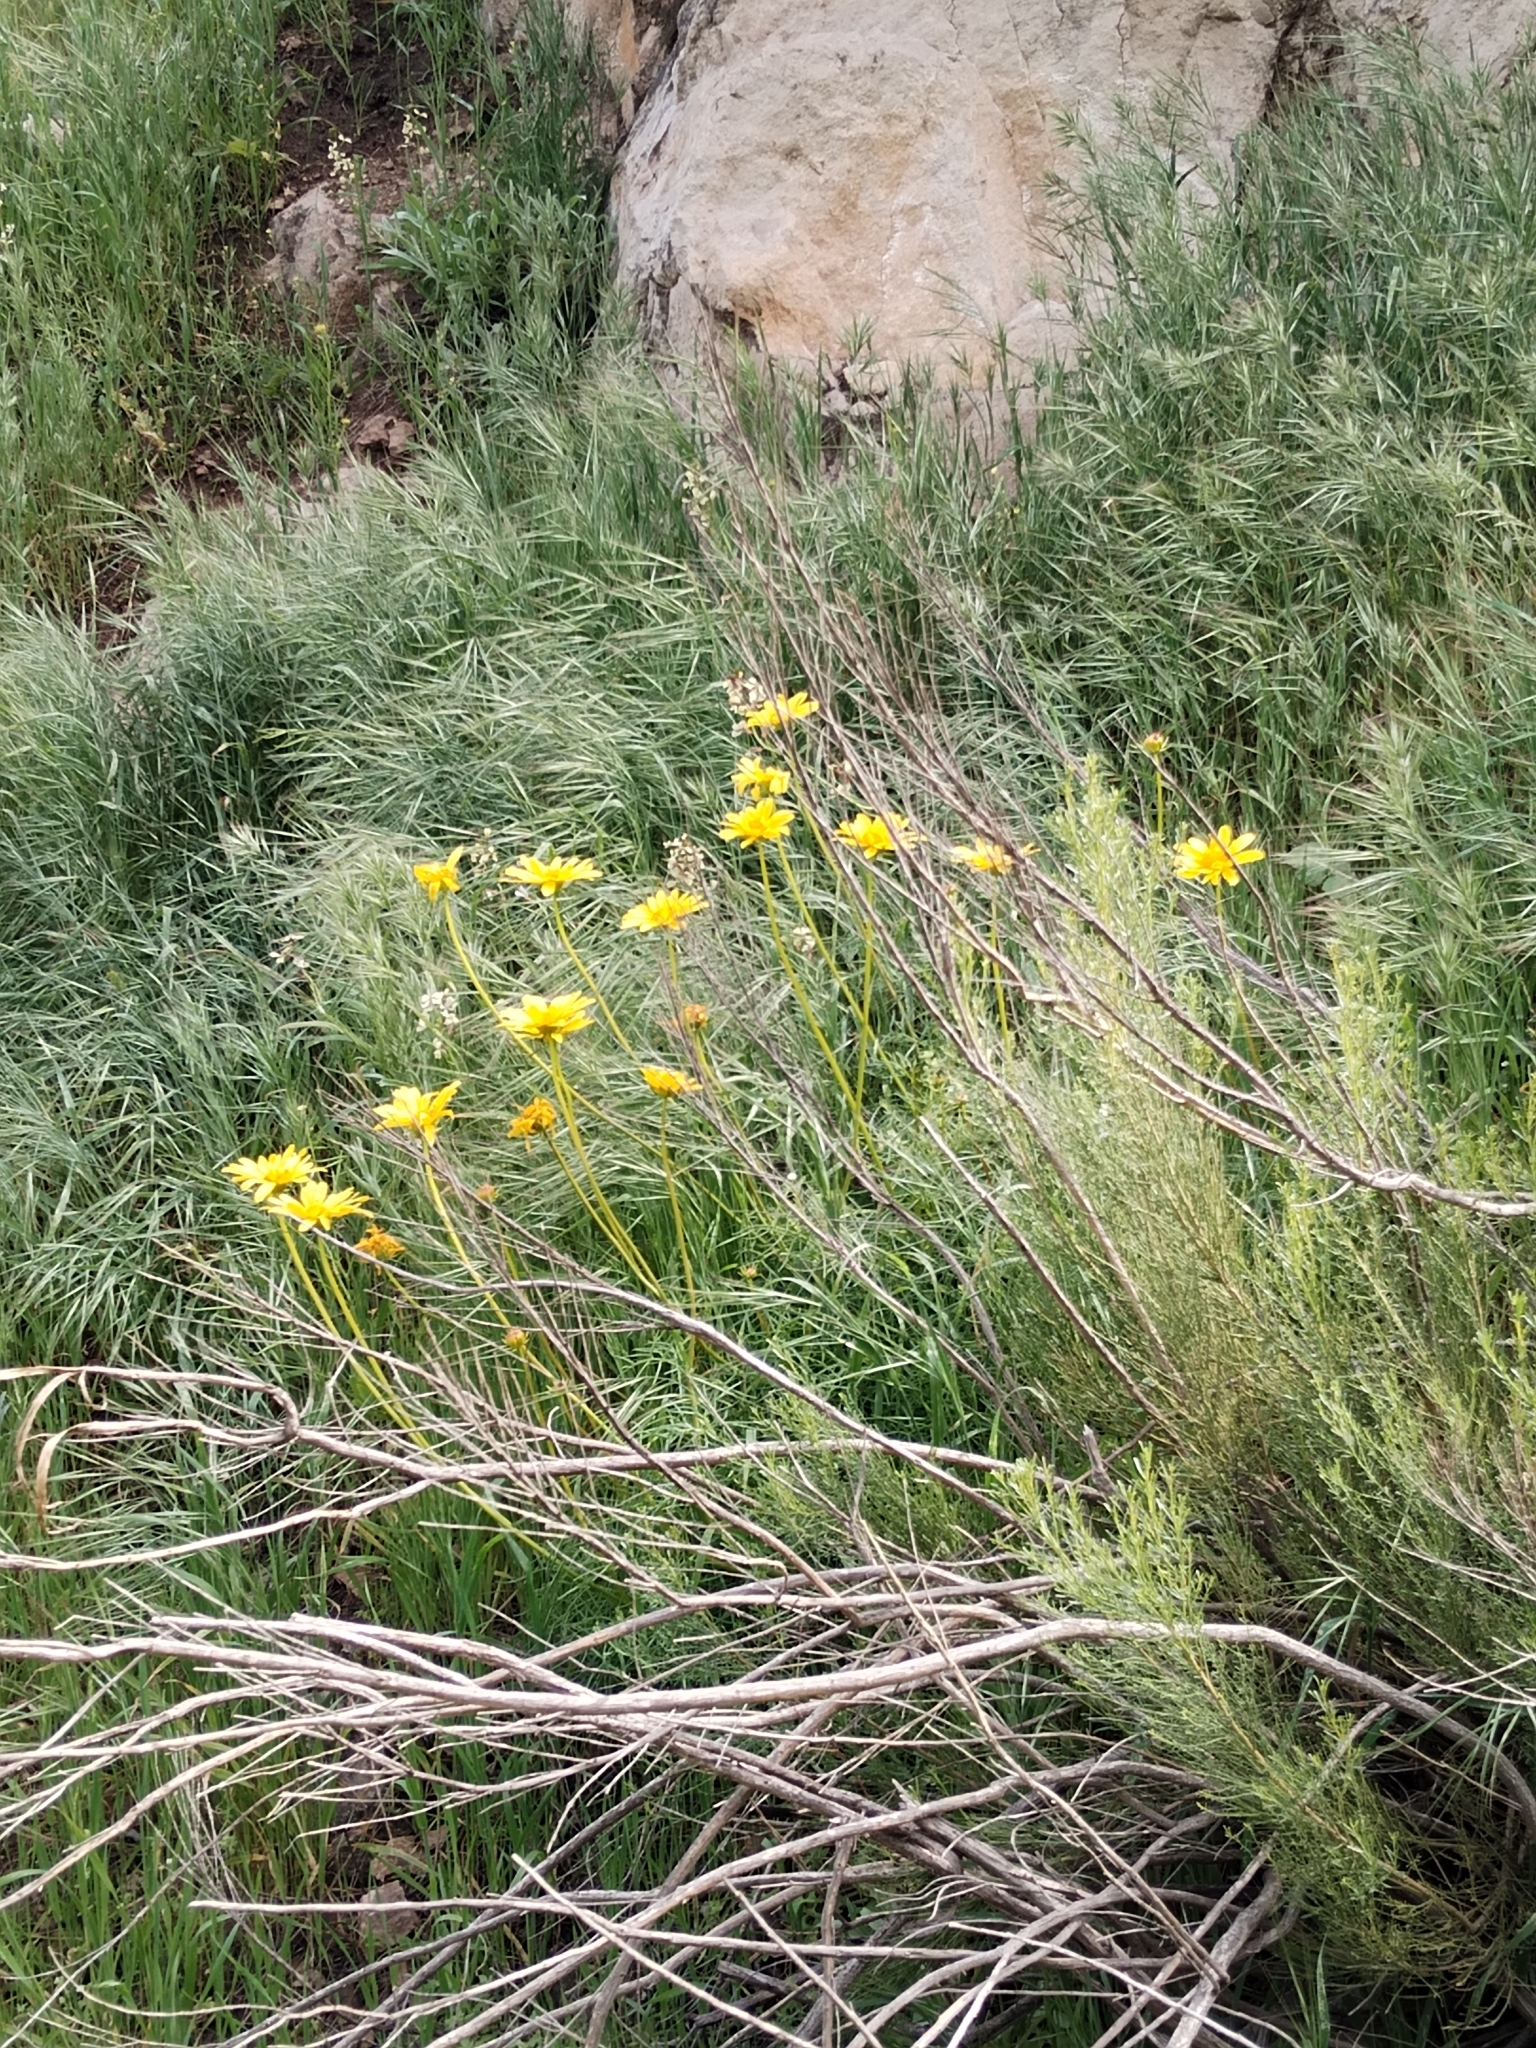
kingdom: Plantae
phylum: Tracheophyta
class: Magnoliopsida
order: Asterales
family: Asteraceae
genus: Coreopsis
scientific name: Coreopsis maritima
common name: Sea-dahlia
